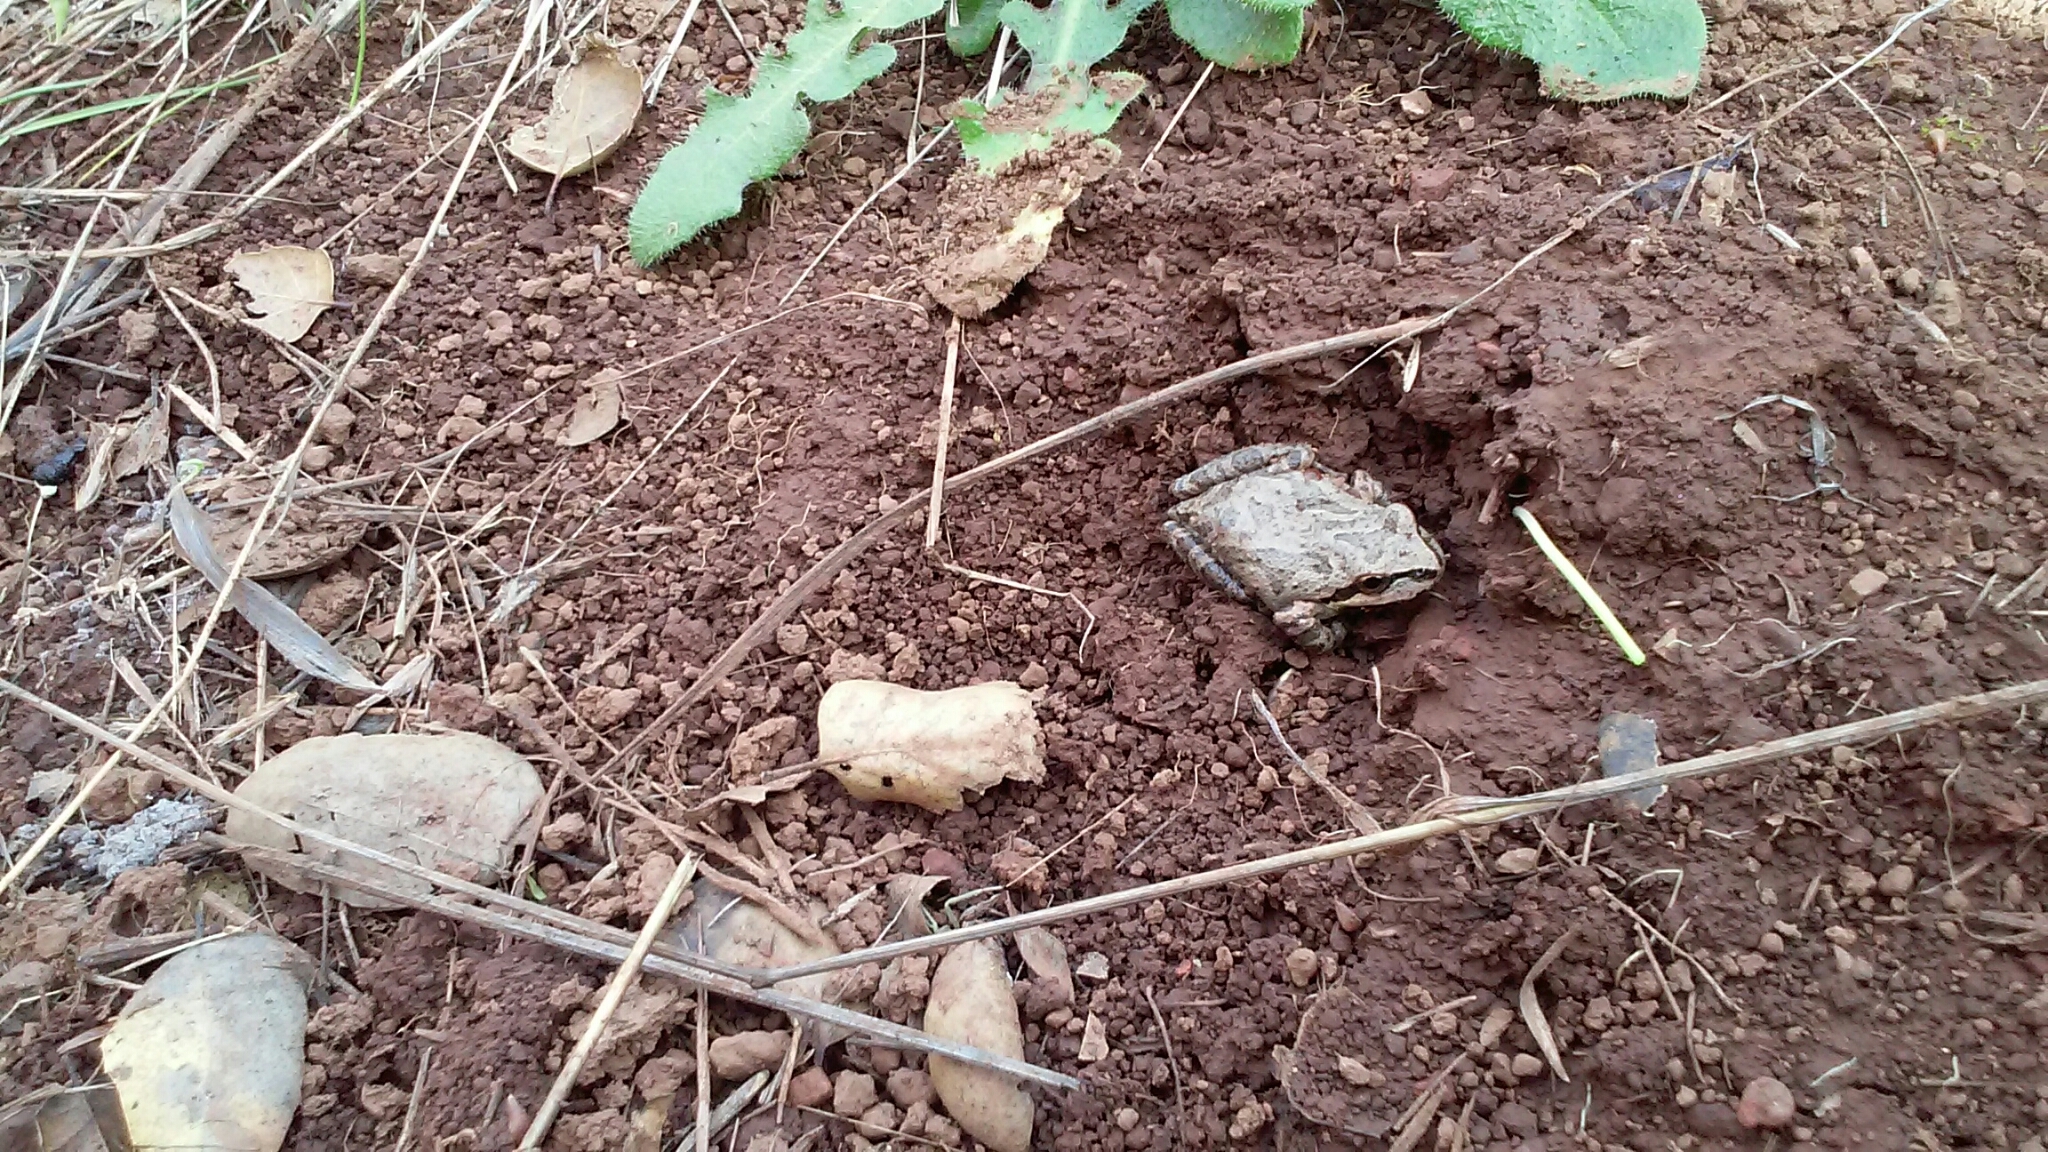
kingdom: Animalia
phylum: Chordata
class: Amphibia
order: Anura
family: Hylidae
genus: Pseudacris
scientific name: Pseudacris regilla
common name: Pacific chorus frog
